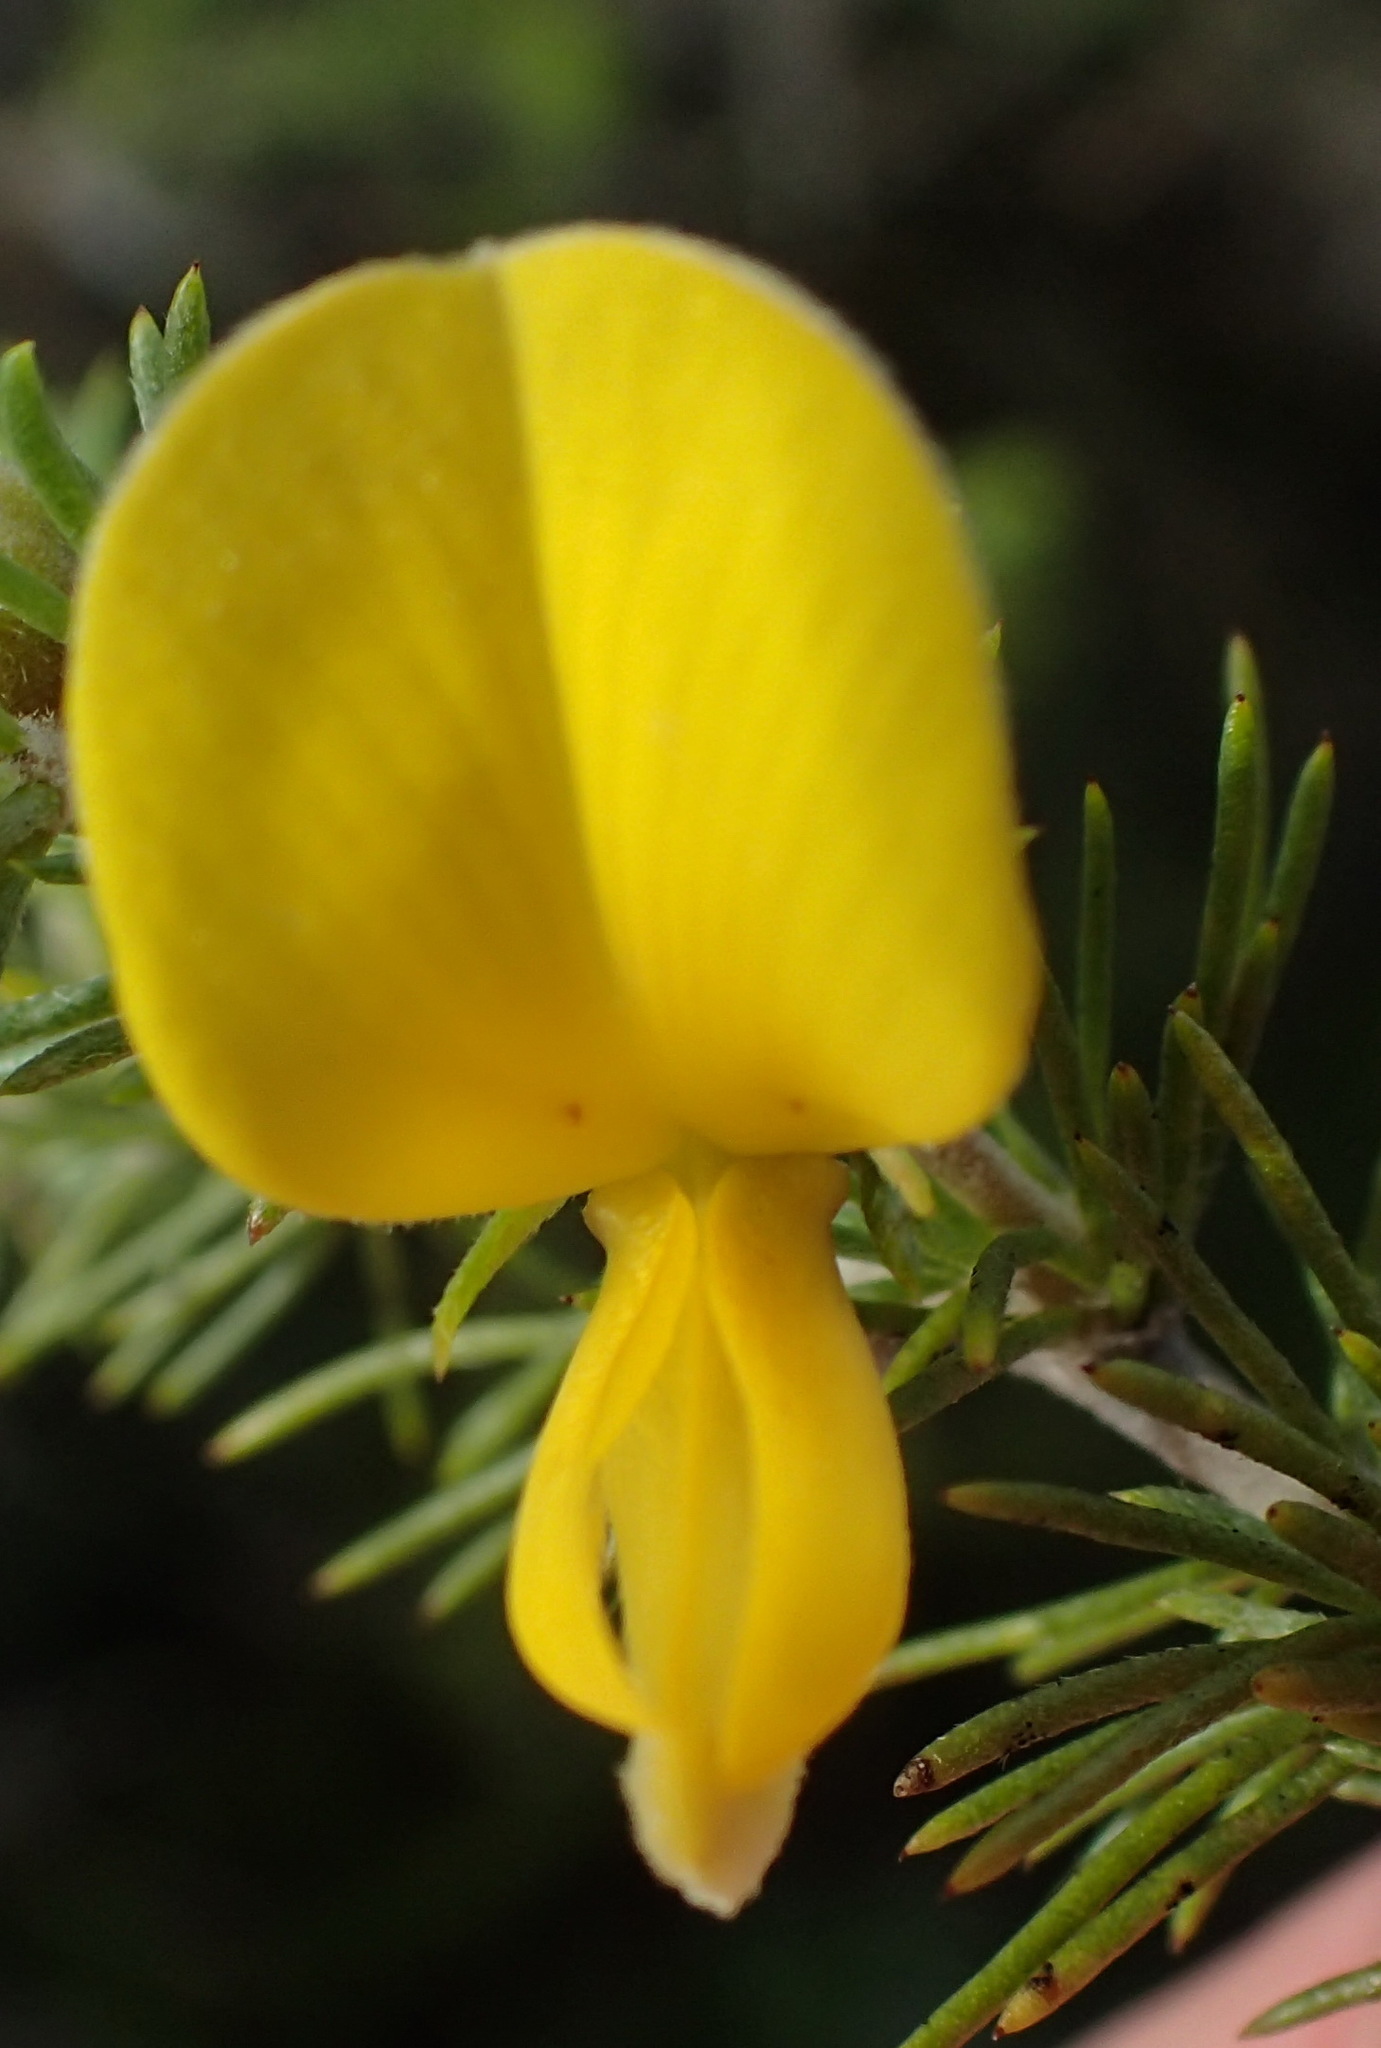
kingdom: Plantae
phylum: Tracheophyta
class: Magnoliopsida
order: Fabales
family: Fabaceae
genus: Aspalathus
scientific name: Aspalathus kougaensis
